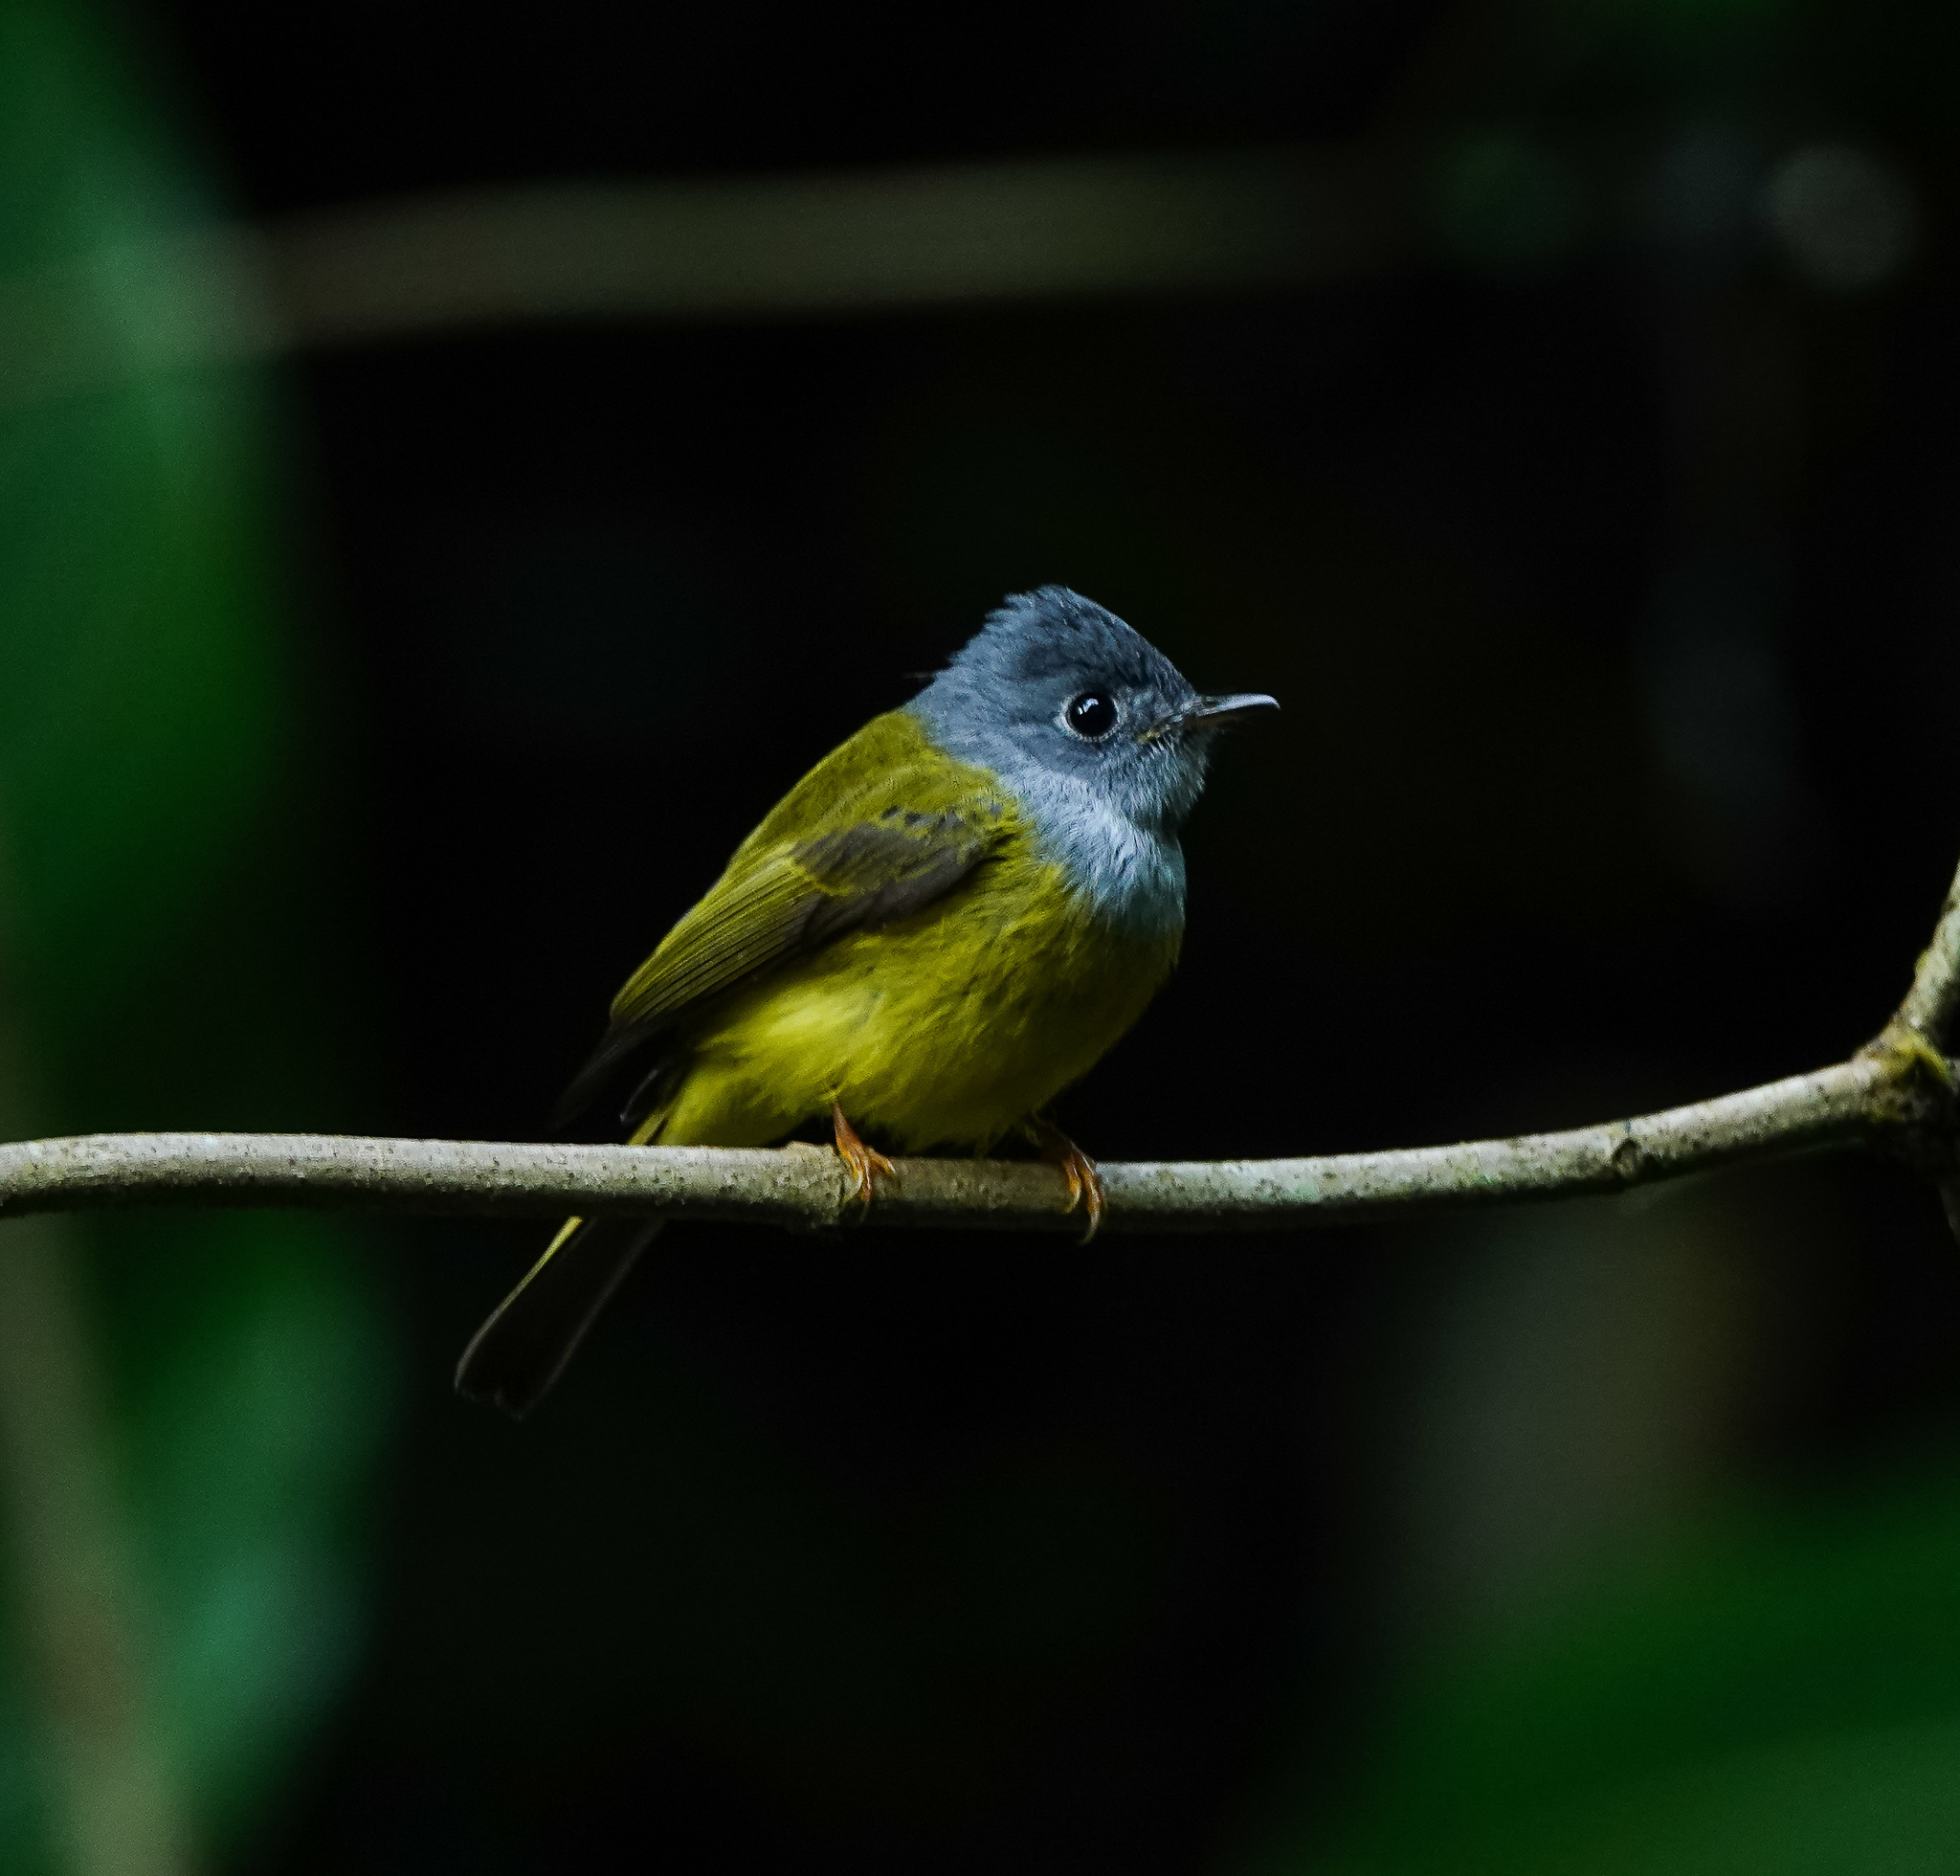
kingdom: Animalia
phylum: Chordata
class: Aves
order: Passeriformes
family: Stenostiridae
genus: Culicicapa
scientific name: Culicicapa ceylonensis
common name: Grey-headed canary-flycatcher
